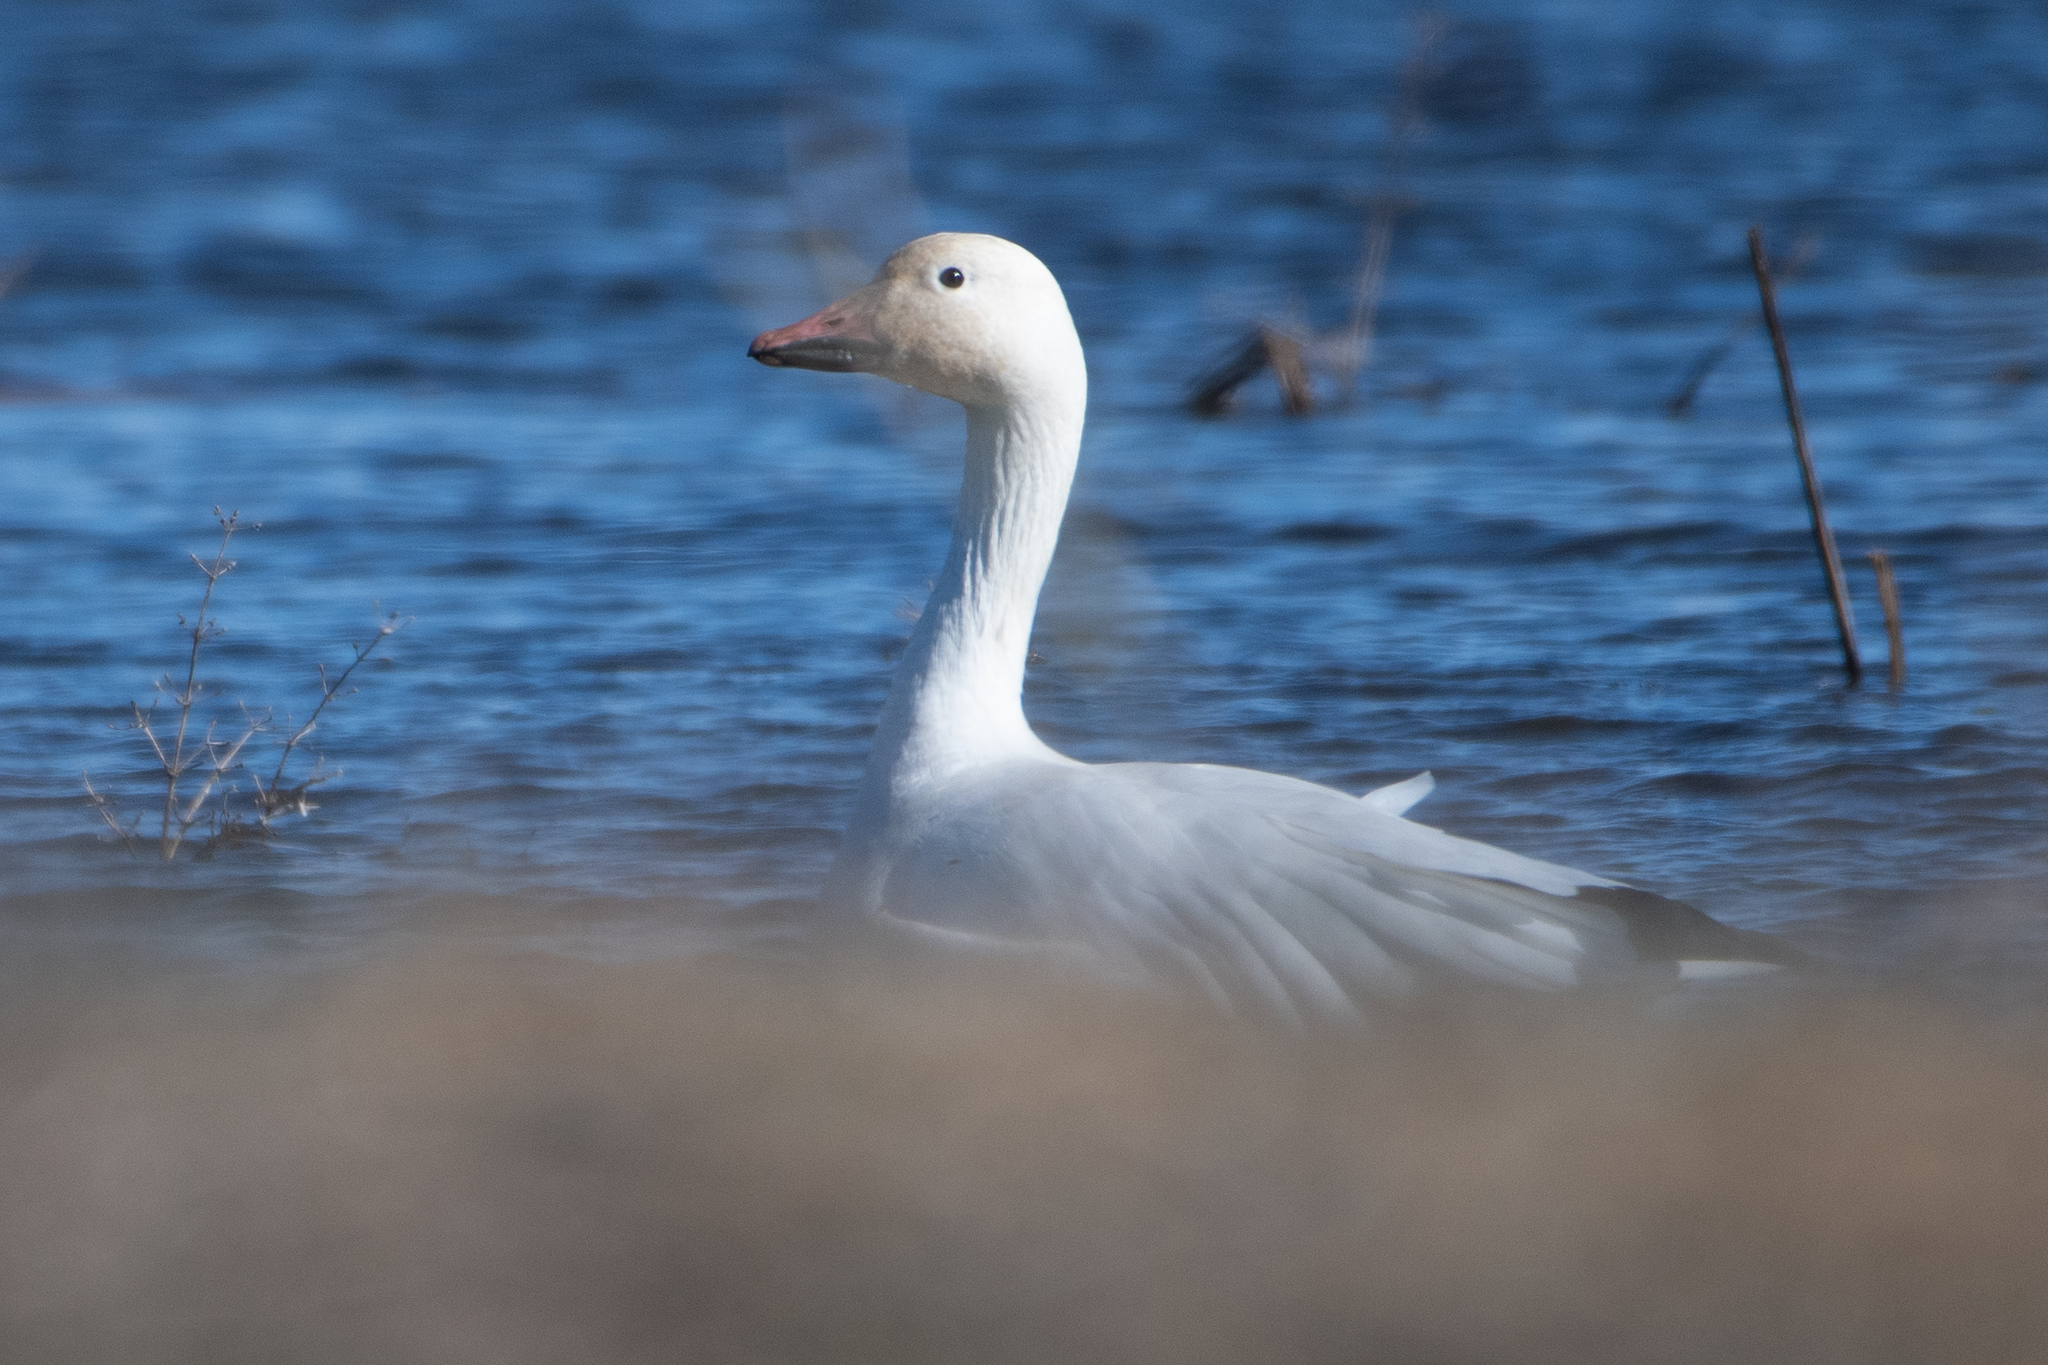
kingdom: Animalia
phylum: Chordata
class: Aves
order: Anseriformes
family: Anatidae
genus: Anser
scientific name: Anser caerulescens
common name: Snow goose
